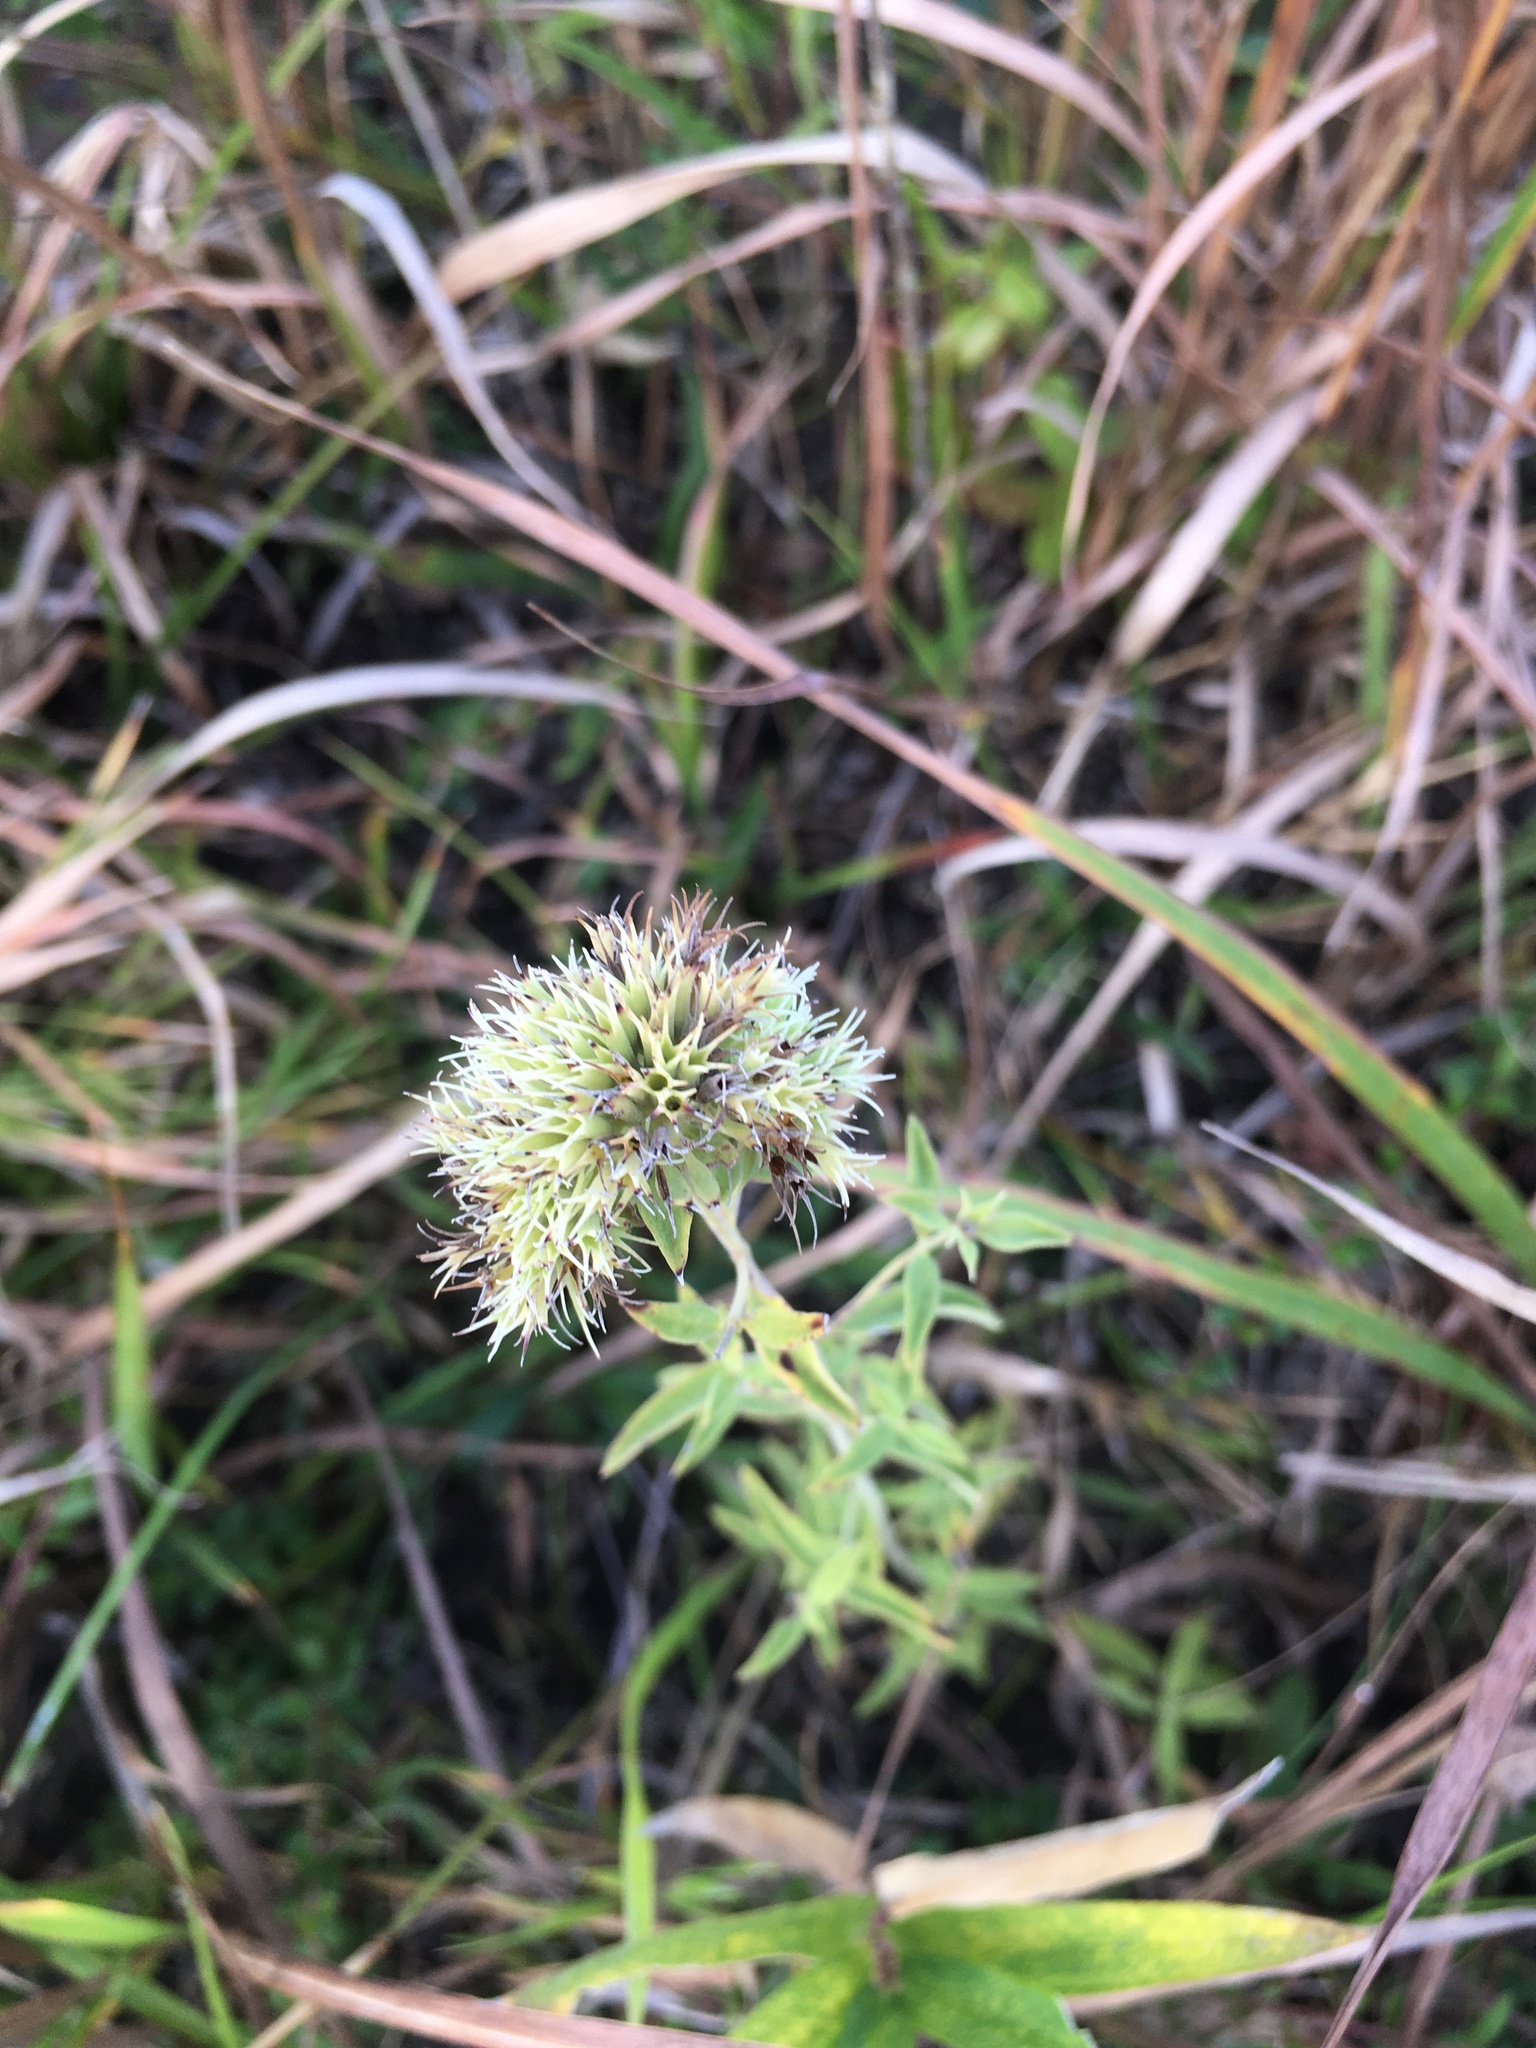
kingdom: Plantae
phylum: Tracheophyta
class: Magnoliopsida
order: Lamiales
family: Lamiaceae
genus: Pycnanthemum
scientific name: Pycnanthemum flexuosum
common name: Appalachian mountain-mint
